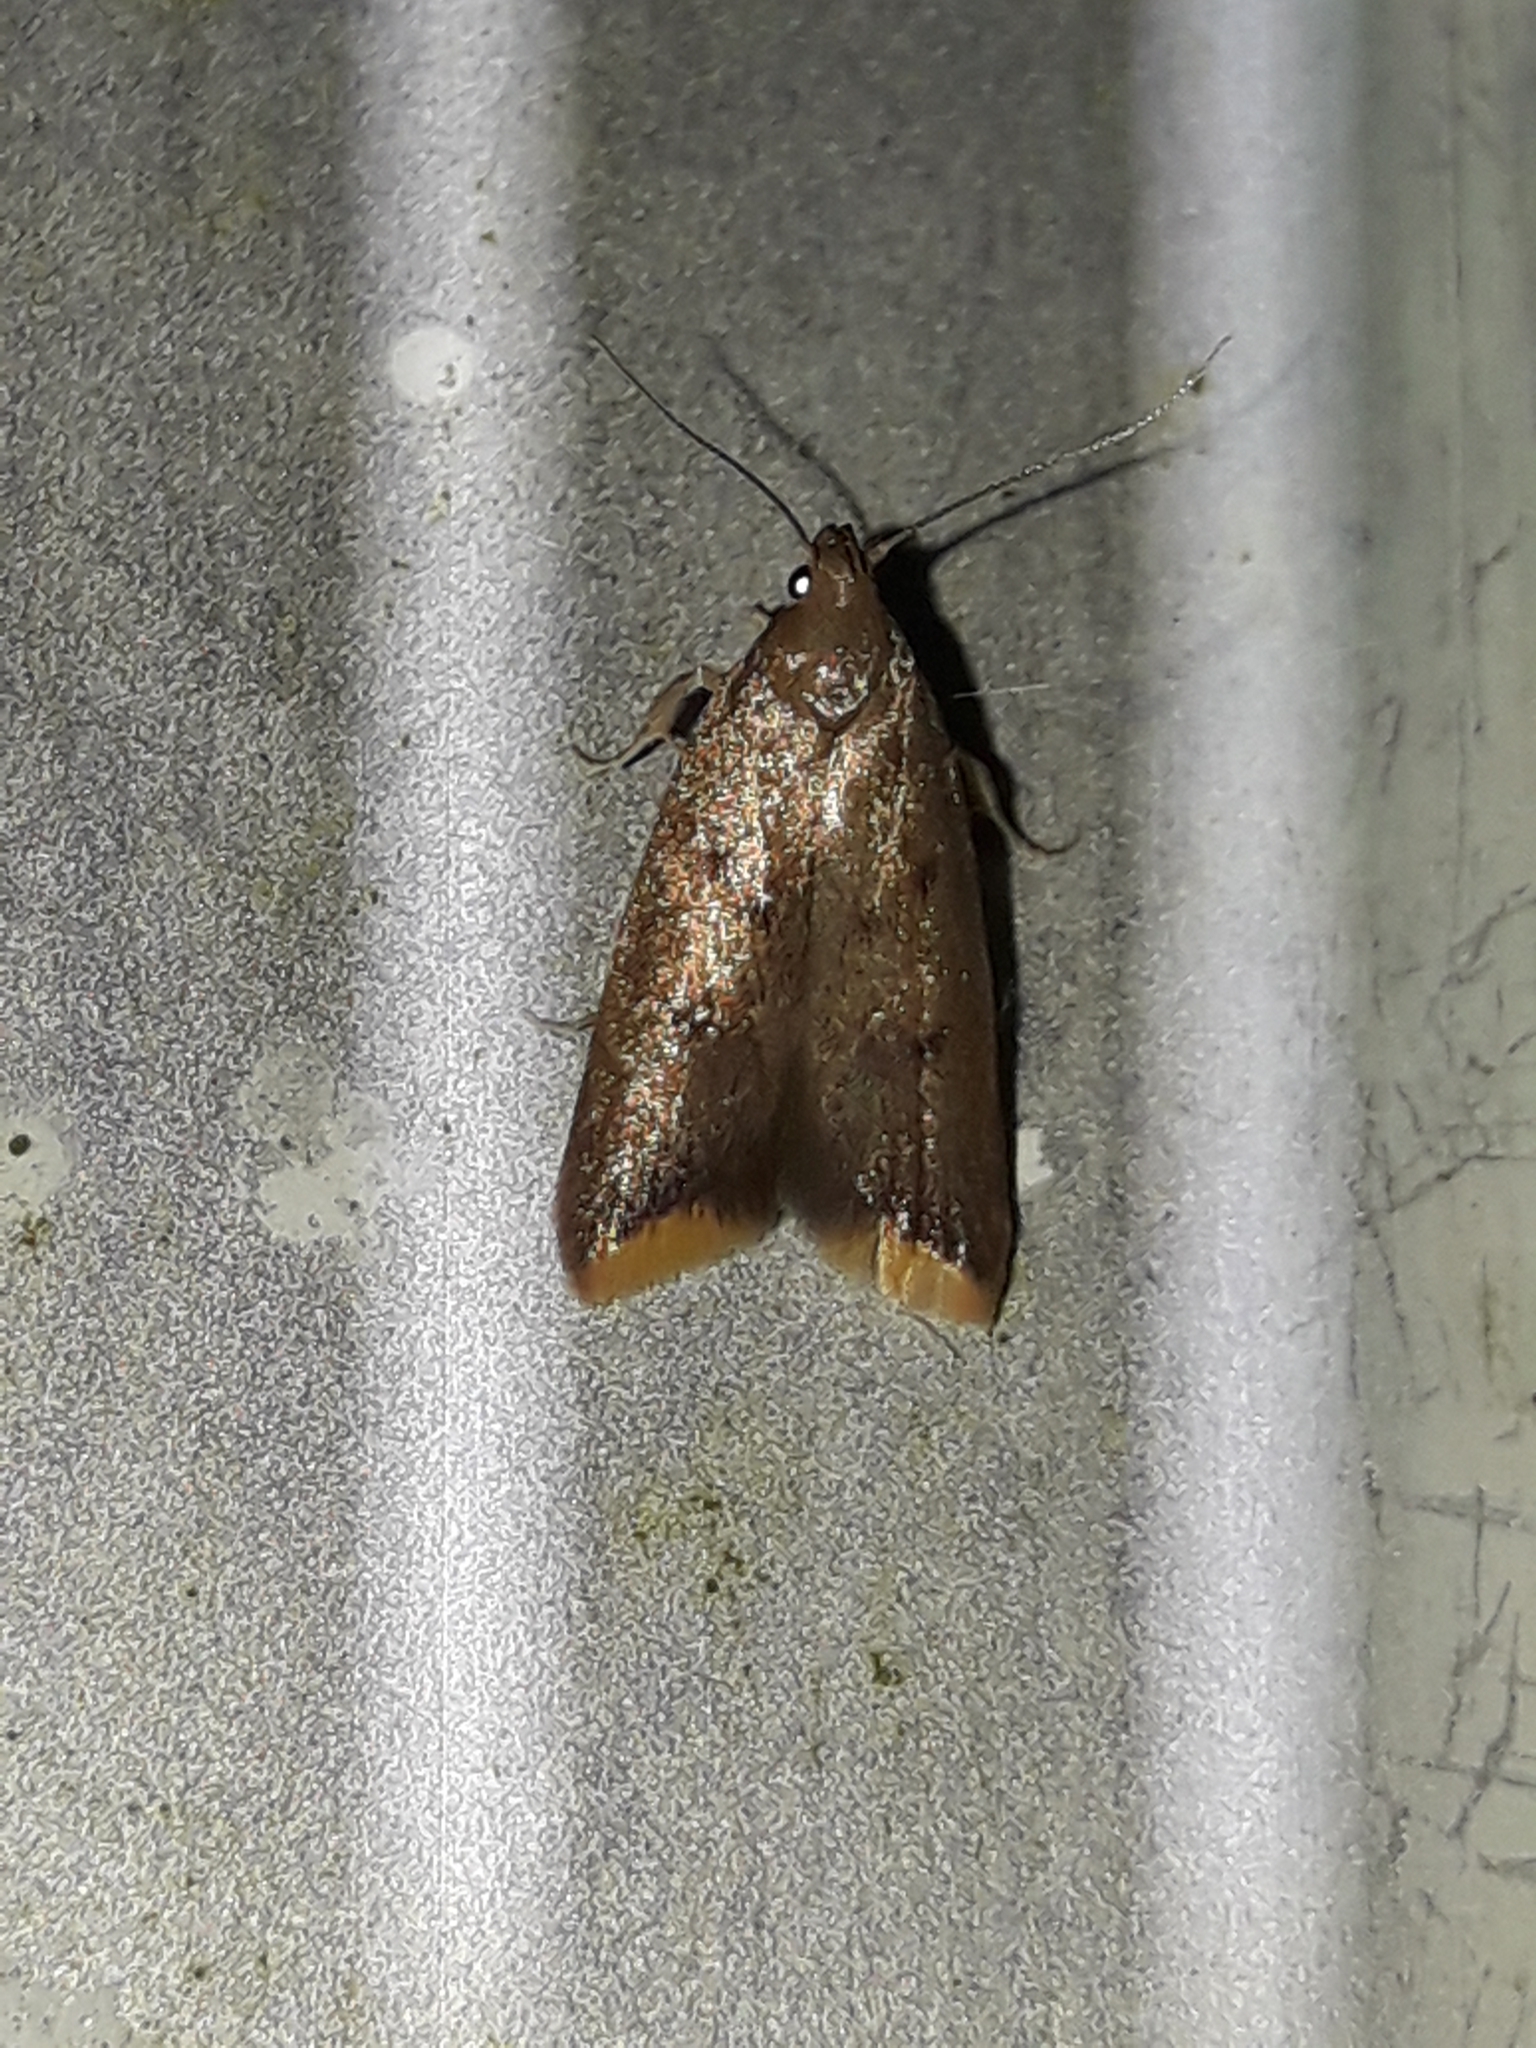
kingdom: Animalia
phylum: Arthropoda
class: Insecta
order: Lepidoptera
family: Oecophoridae
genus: Tachystola
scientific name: Tachystola acroxantha
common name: Ruddy streak
